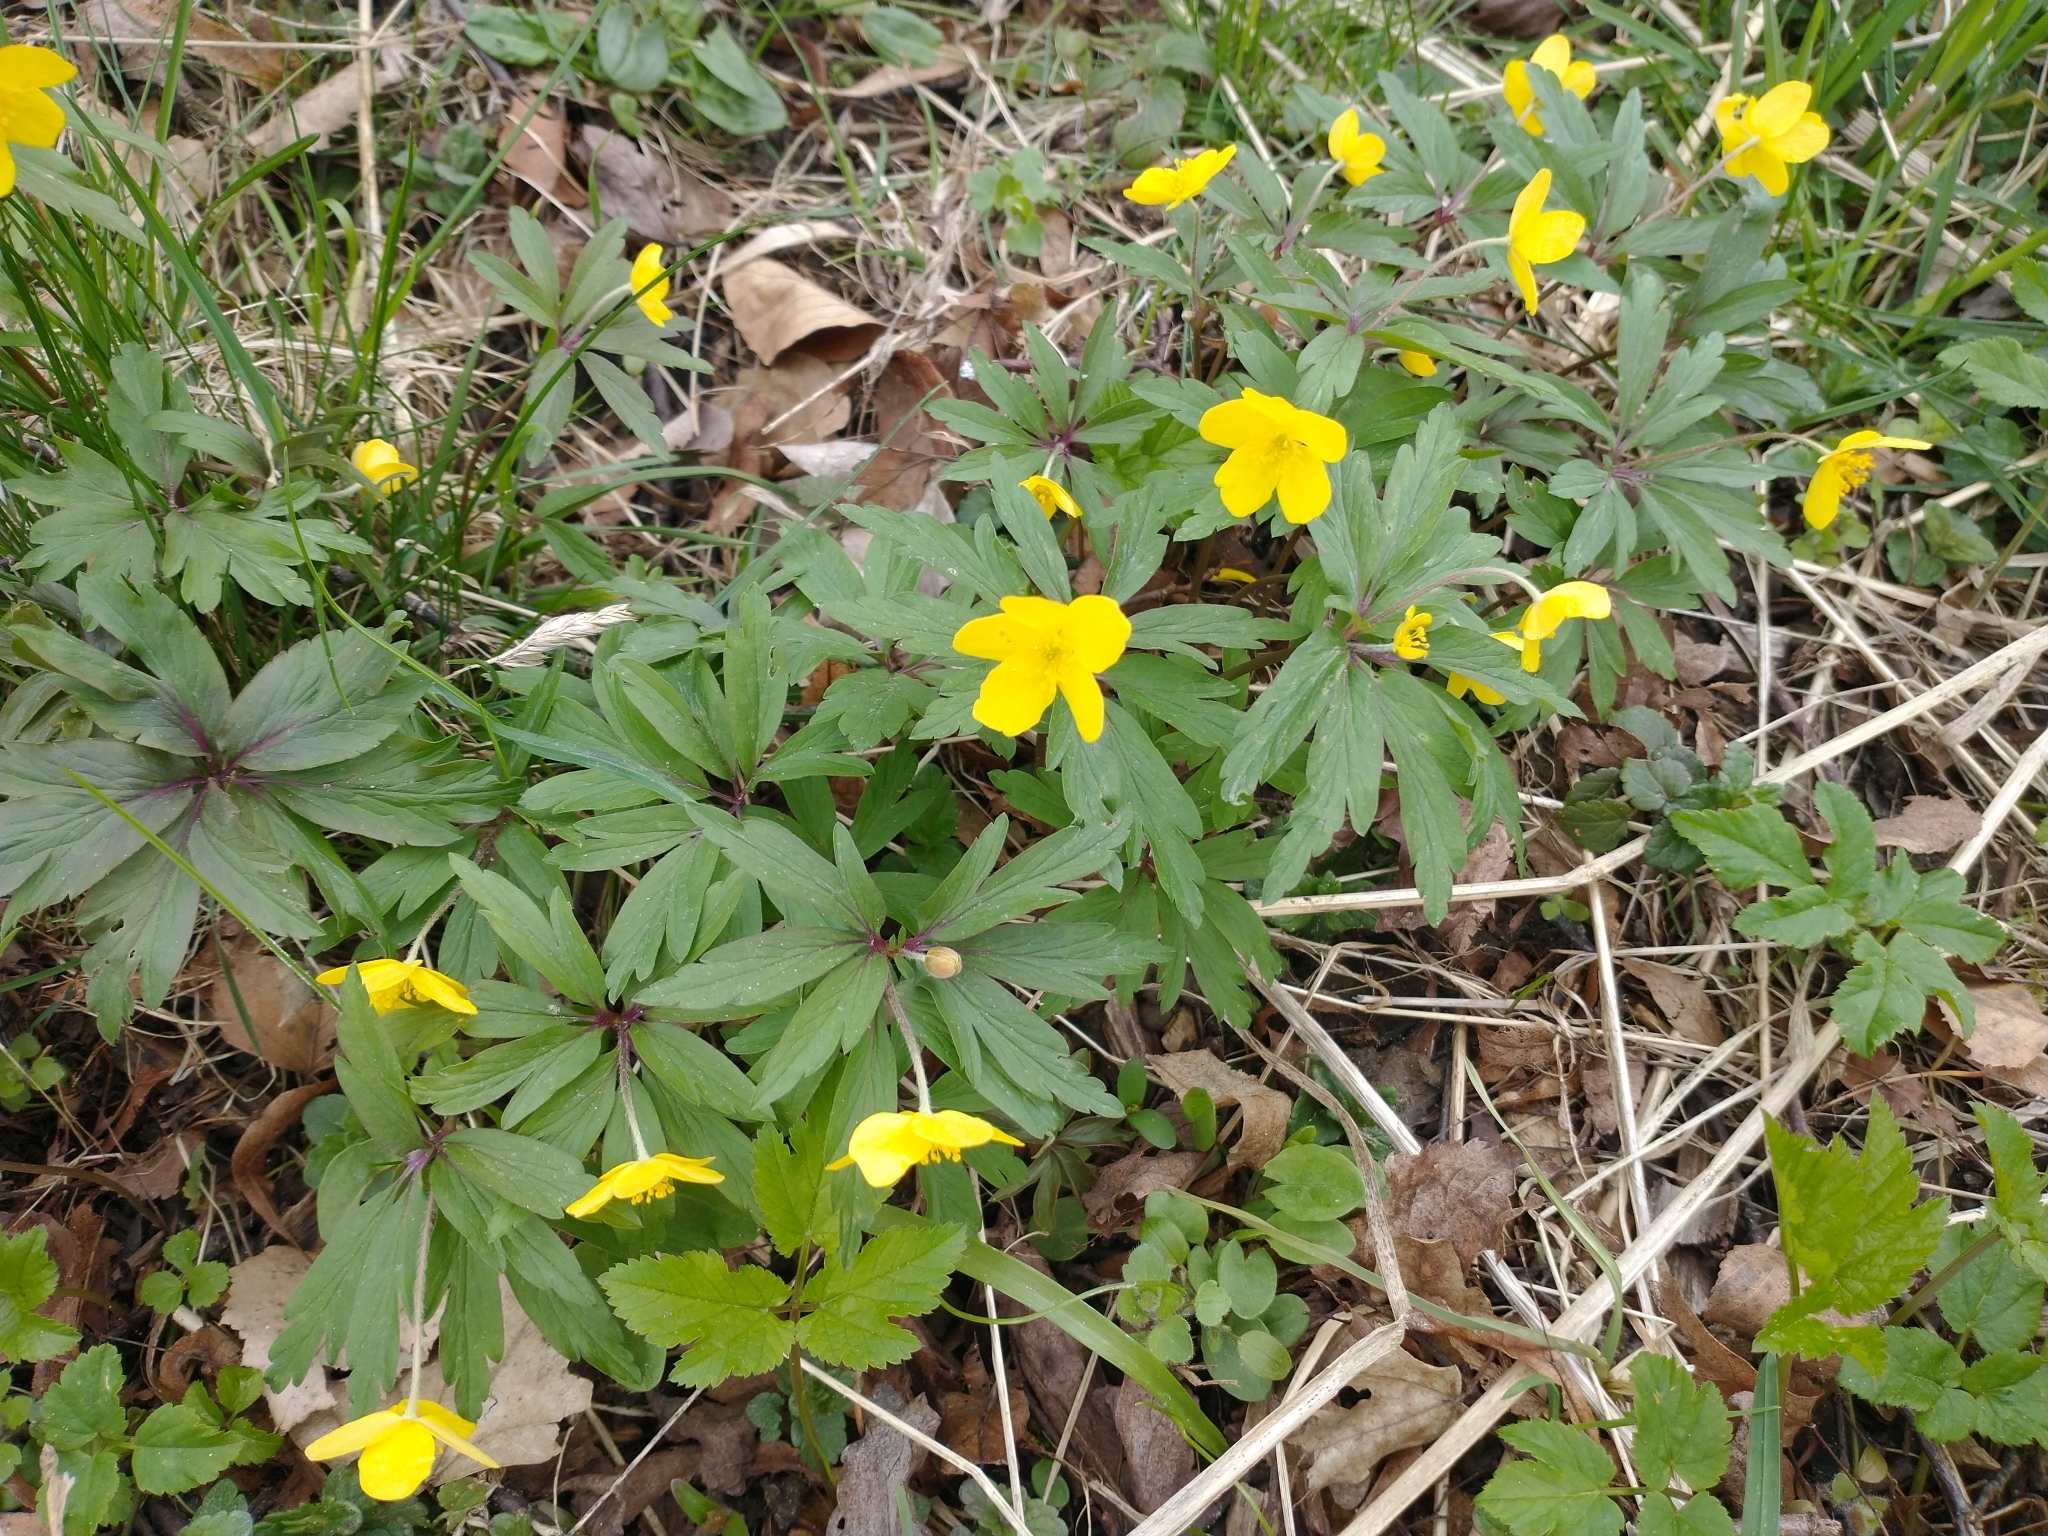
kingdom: Plantae
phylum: Tracheophyta
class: Magnoliopsida
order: Ranunculales
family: Ranunculaceae
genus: Anemone
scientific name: Anemone ranunculoides
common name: Yellow anemone
